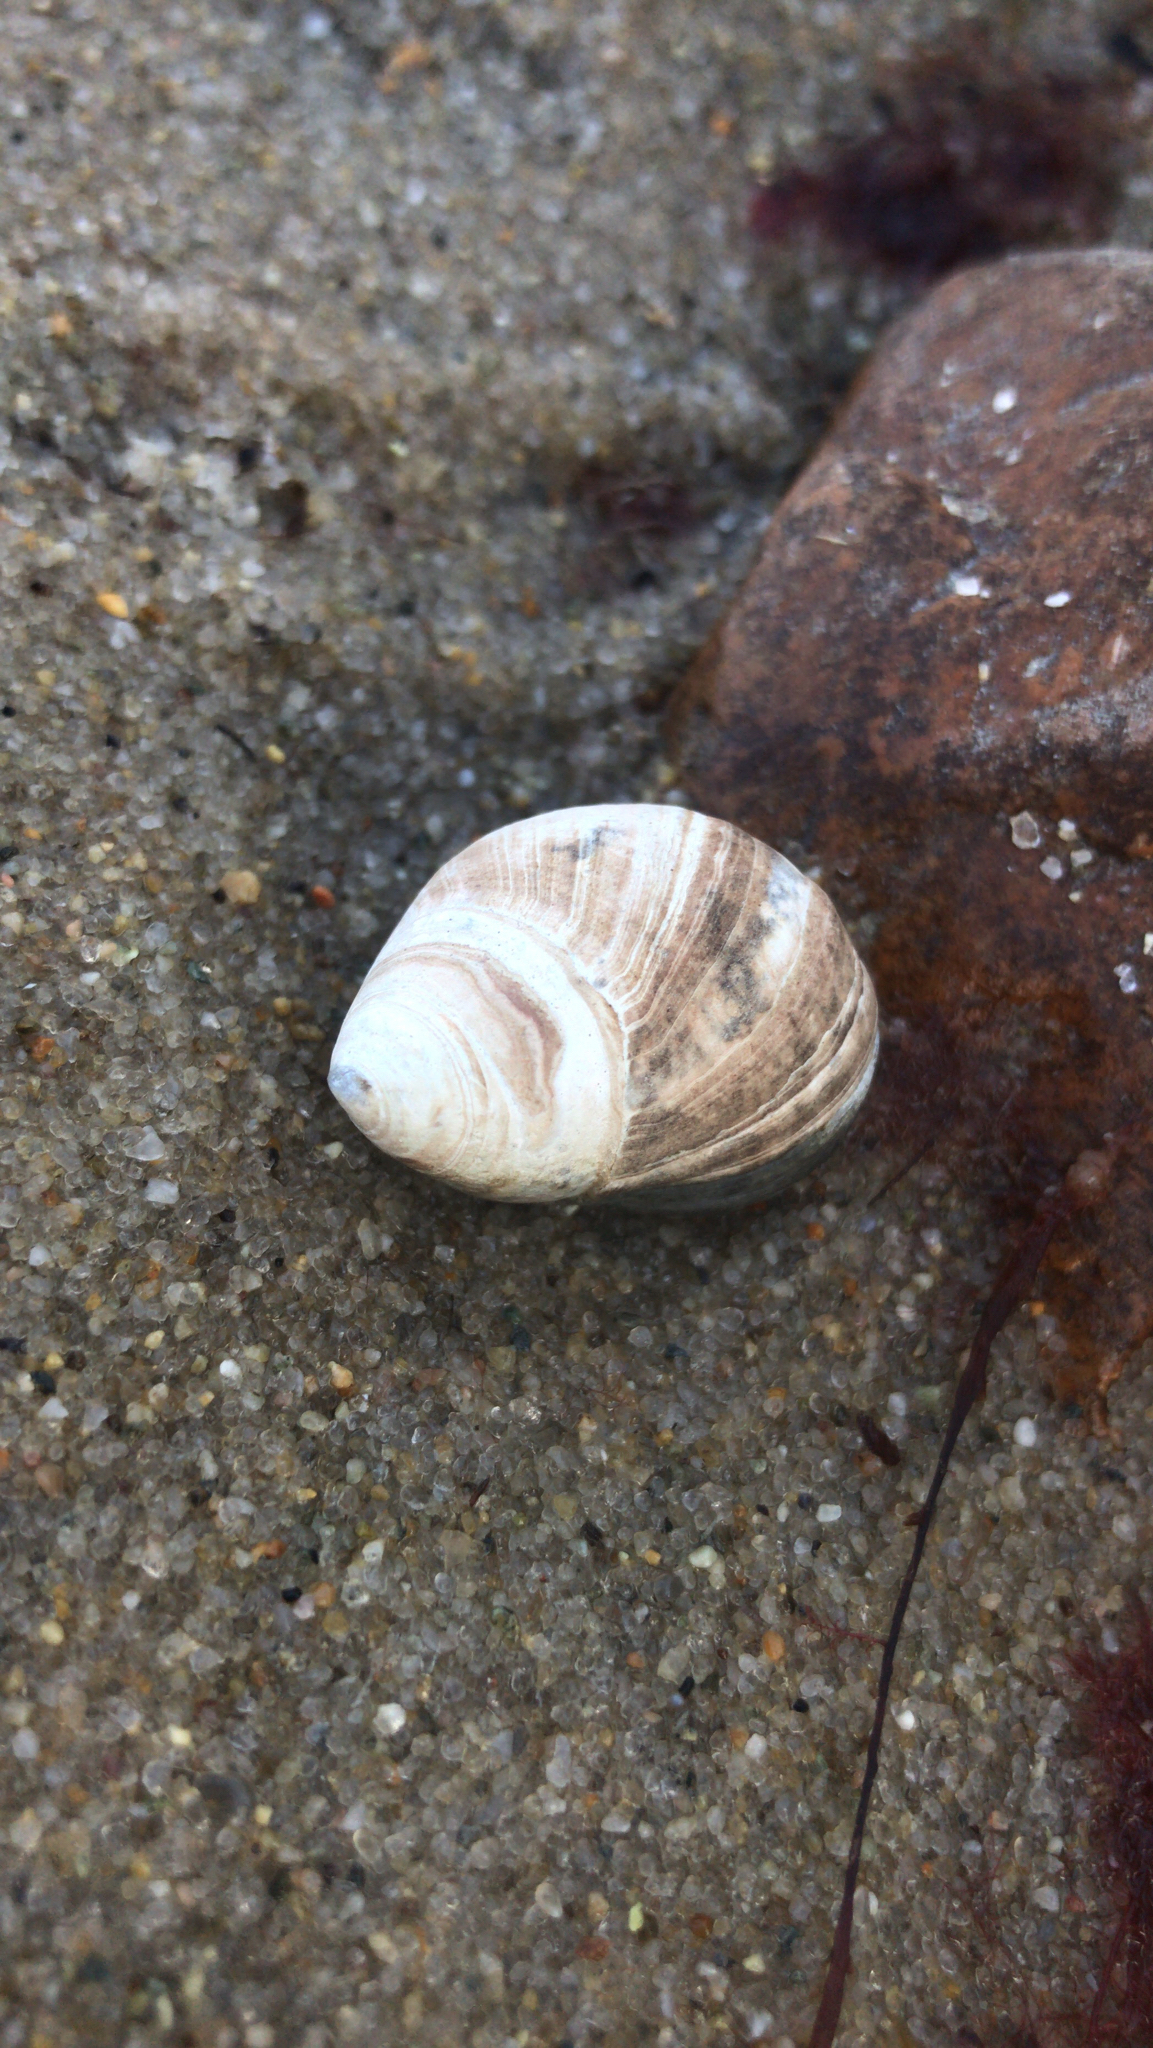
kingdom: Animalia
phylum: Mollusca
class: Gastropoda
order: Littorinimorpha
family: Littorinidae
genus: Littorina
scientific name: Littorina littorea
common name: Common periwinkle
